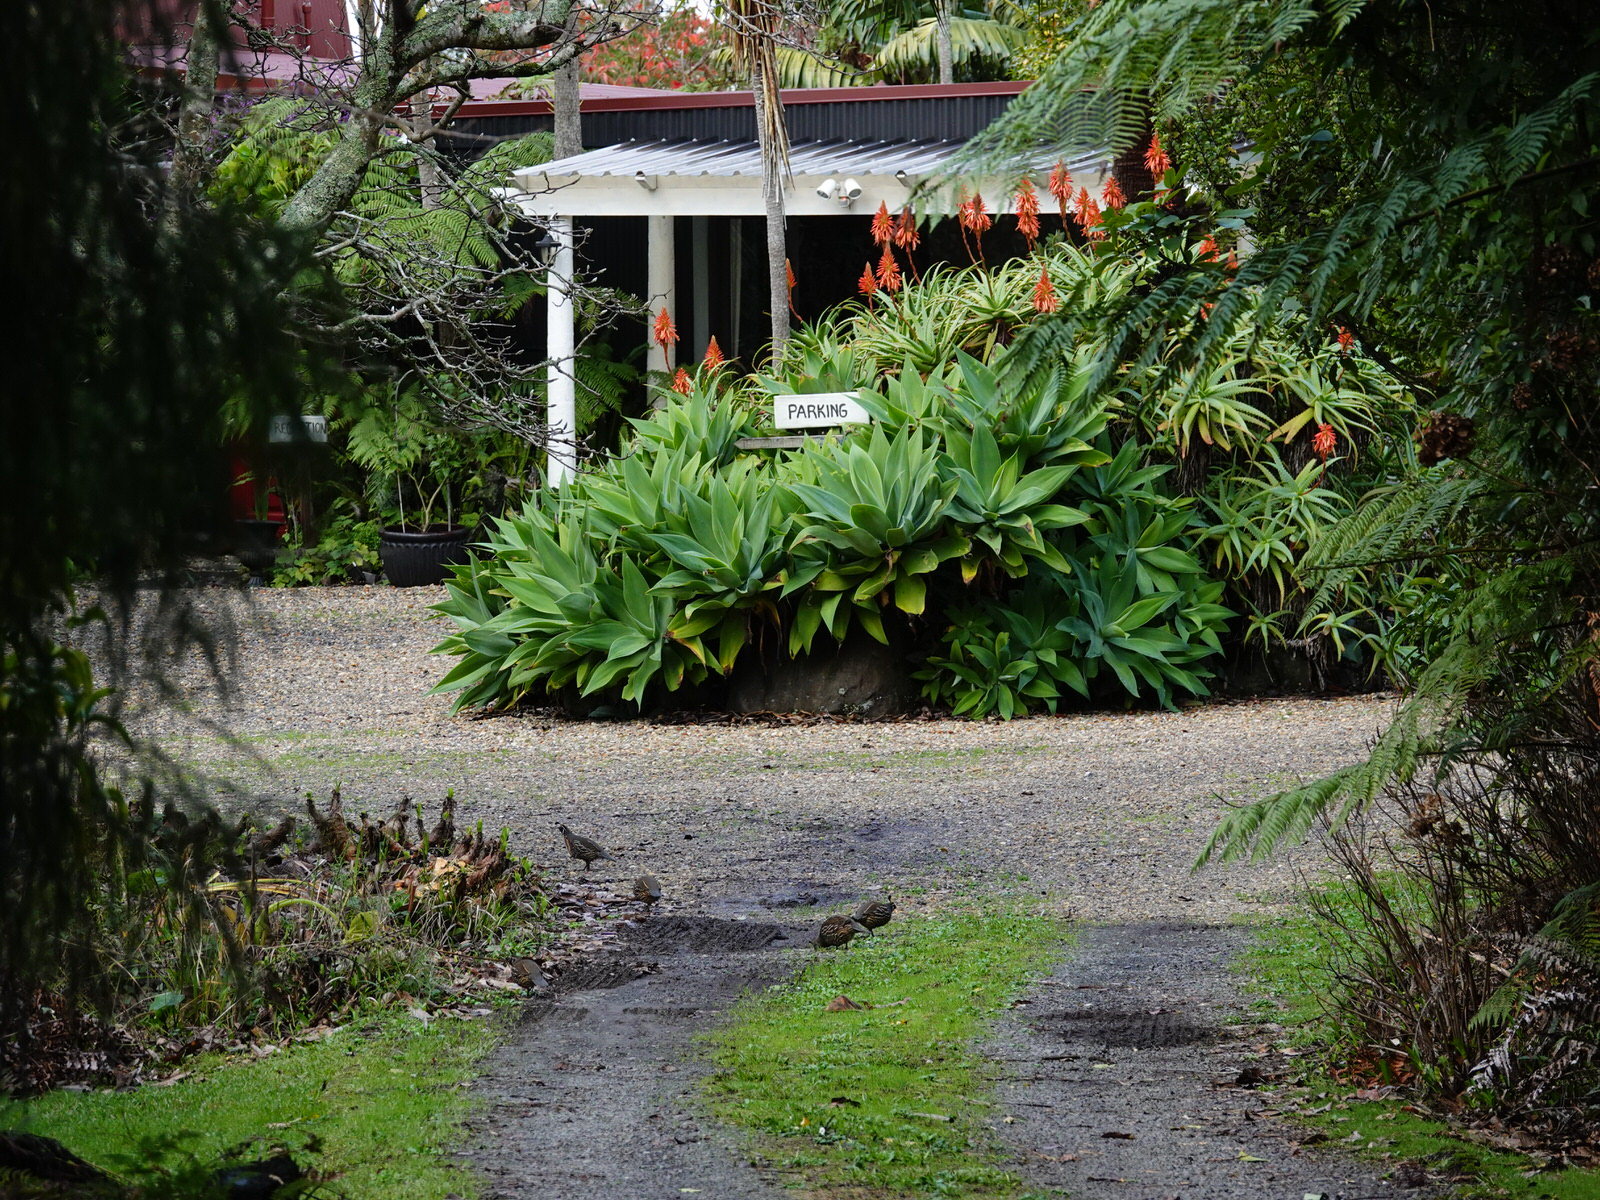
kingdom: Animalia
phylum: Chordata
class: Aves
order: Galliformes
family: Odontophoridae
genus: Callipepla
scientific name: Callipepla californica
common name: California quail
